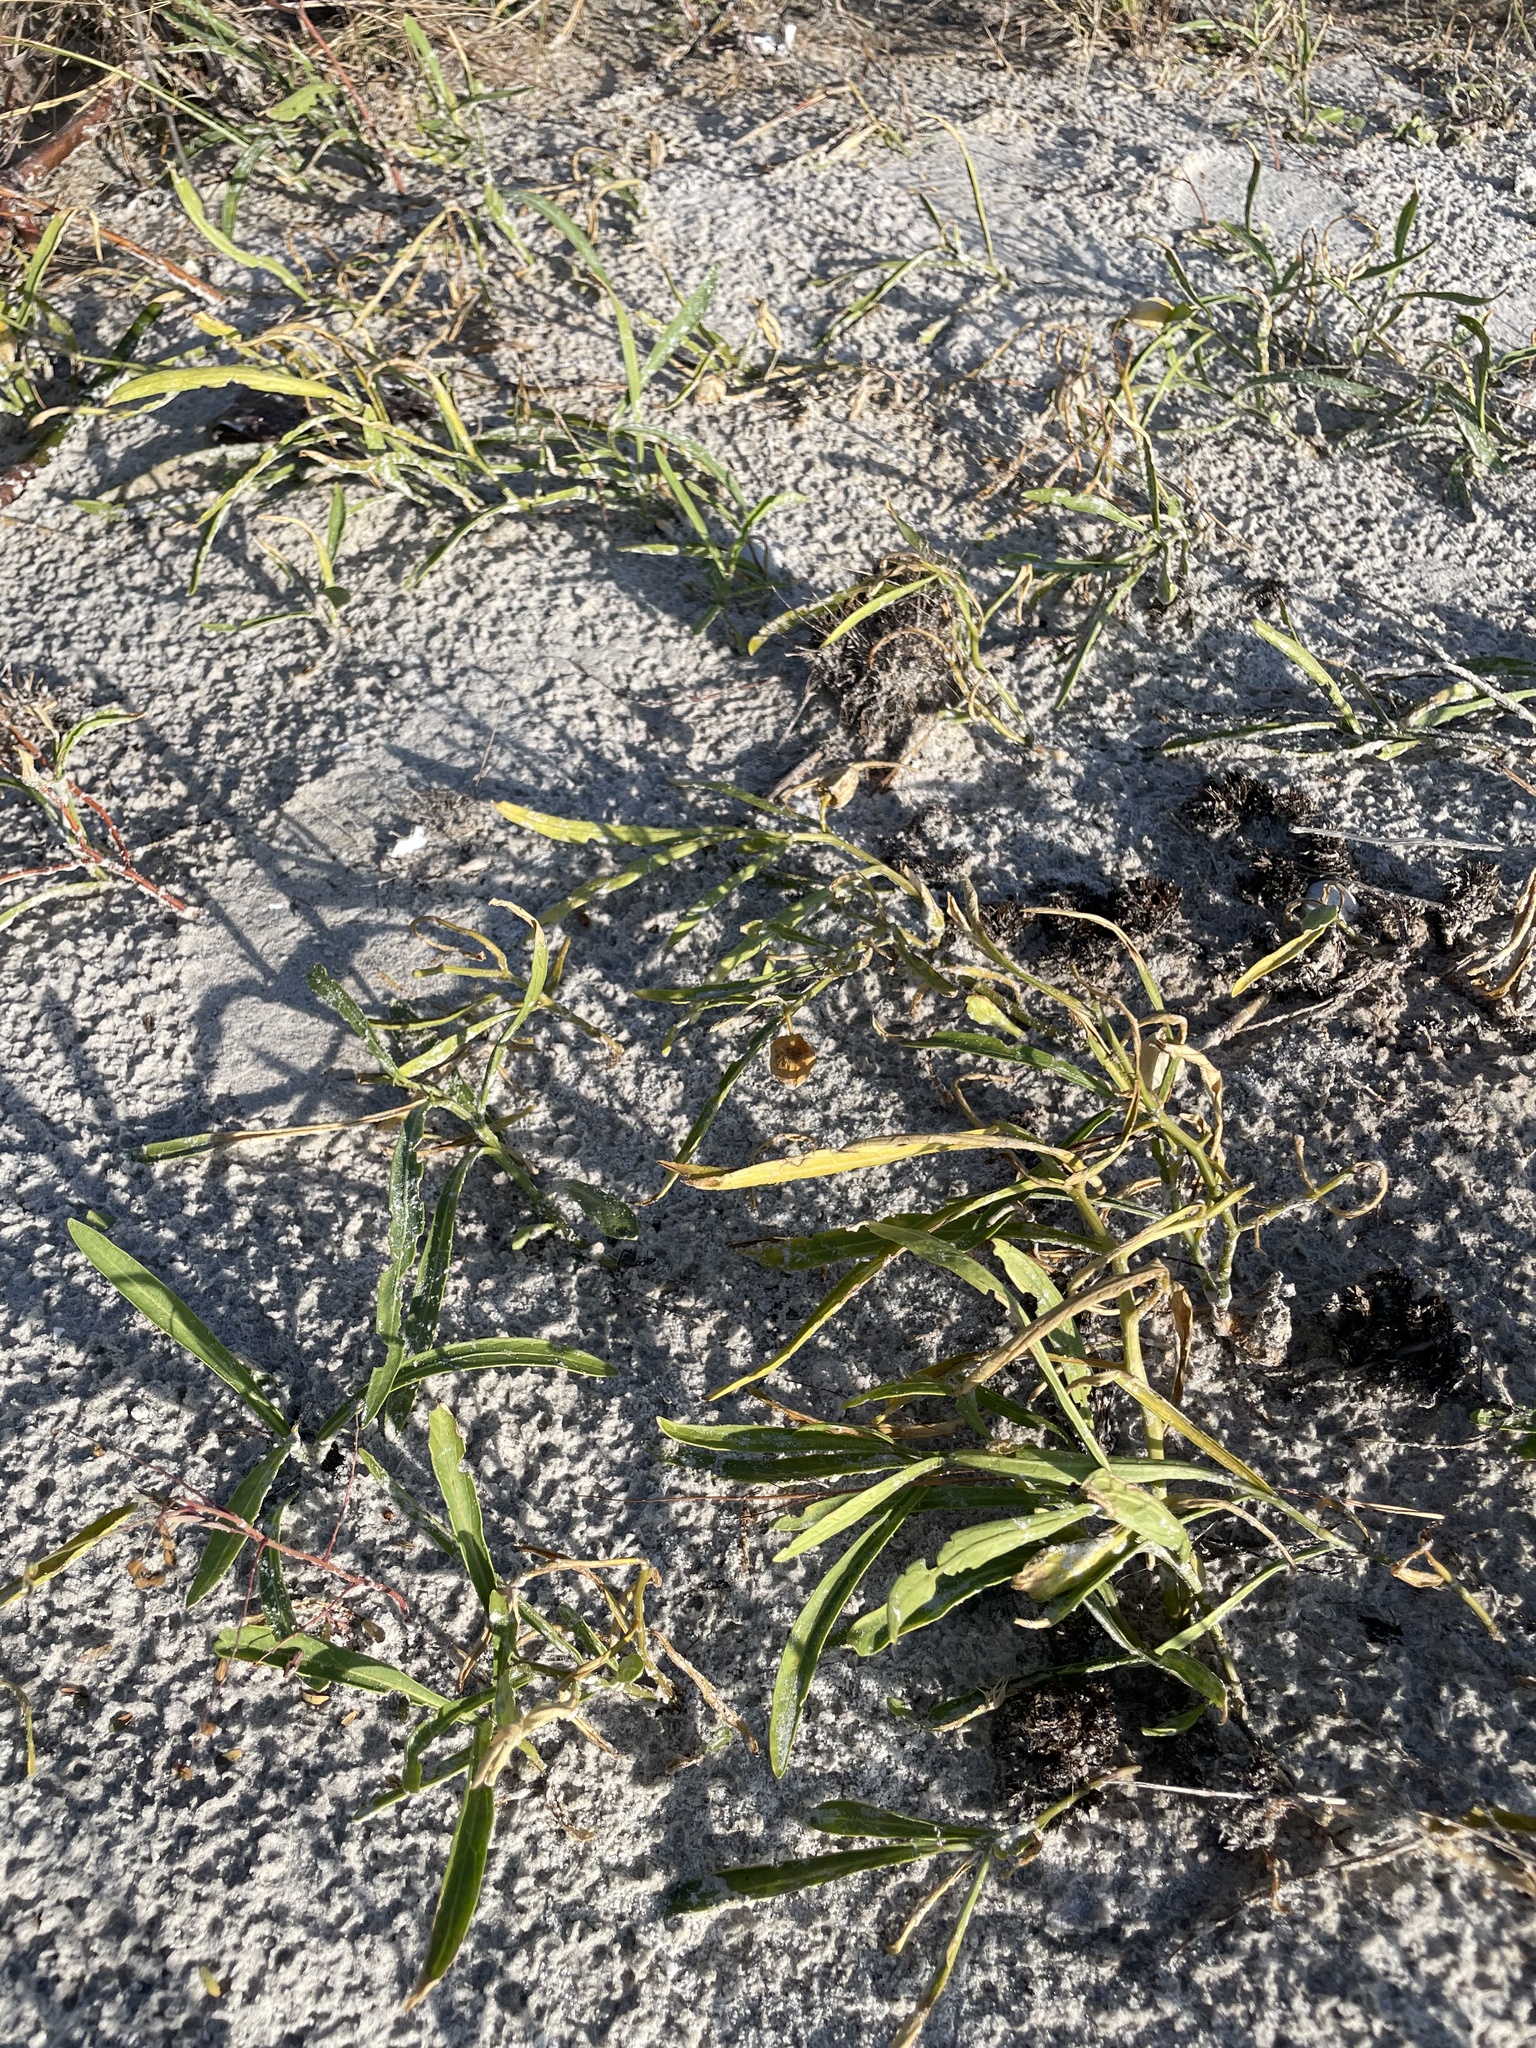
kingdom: Plantae
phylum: Tracheophyta
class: Magnoliopsida
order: Solanales
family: Solanaceae
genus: Physalis
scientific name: Physalis walteri
